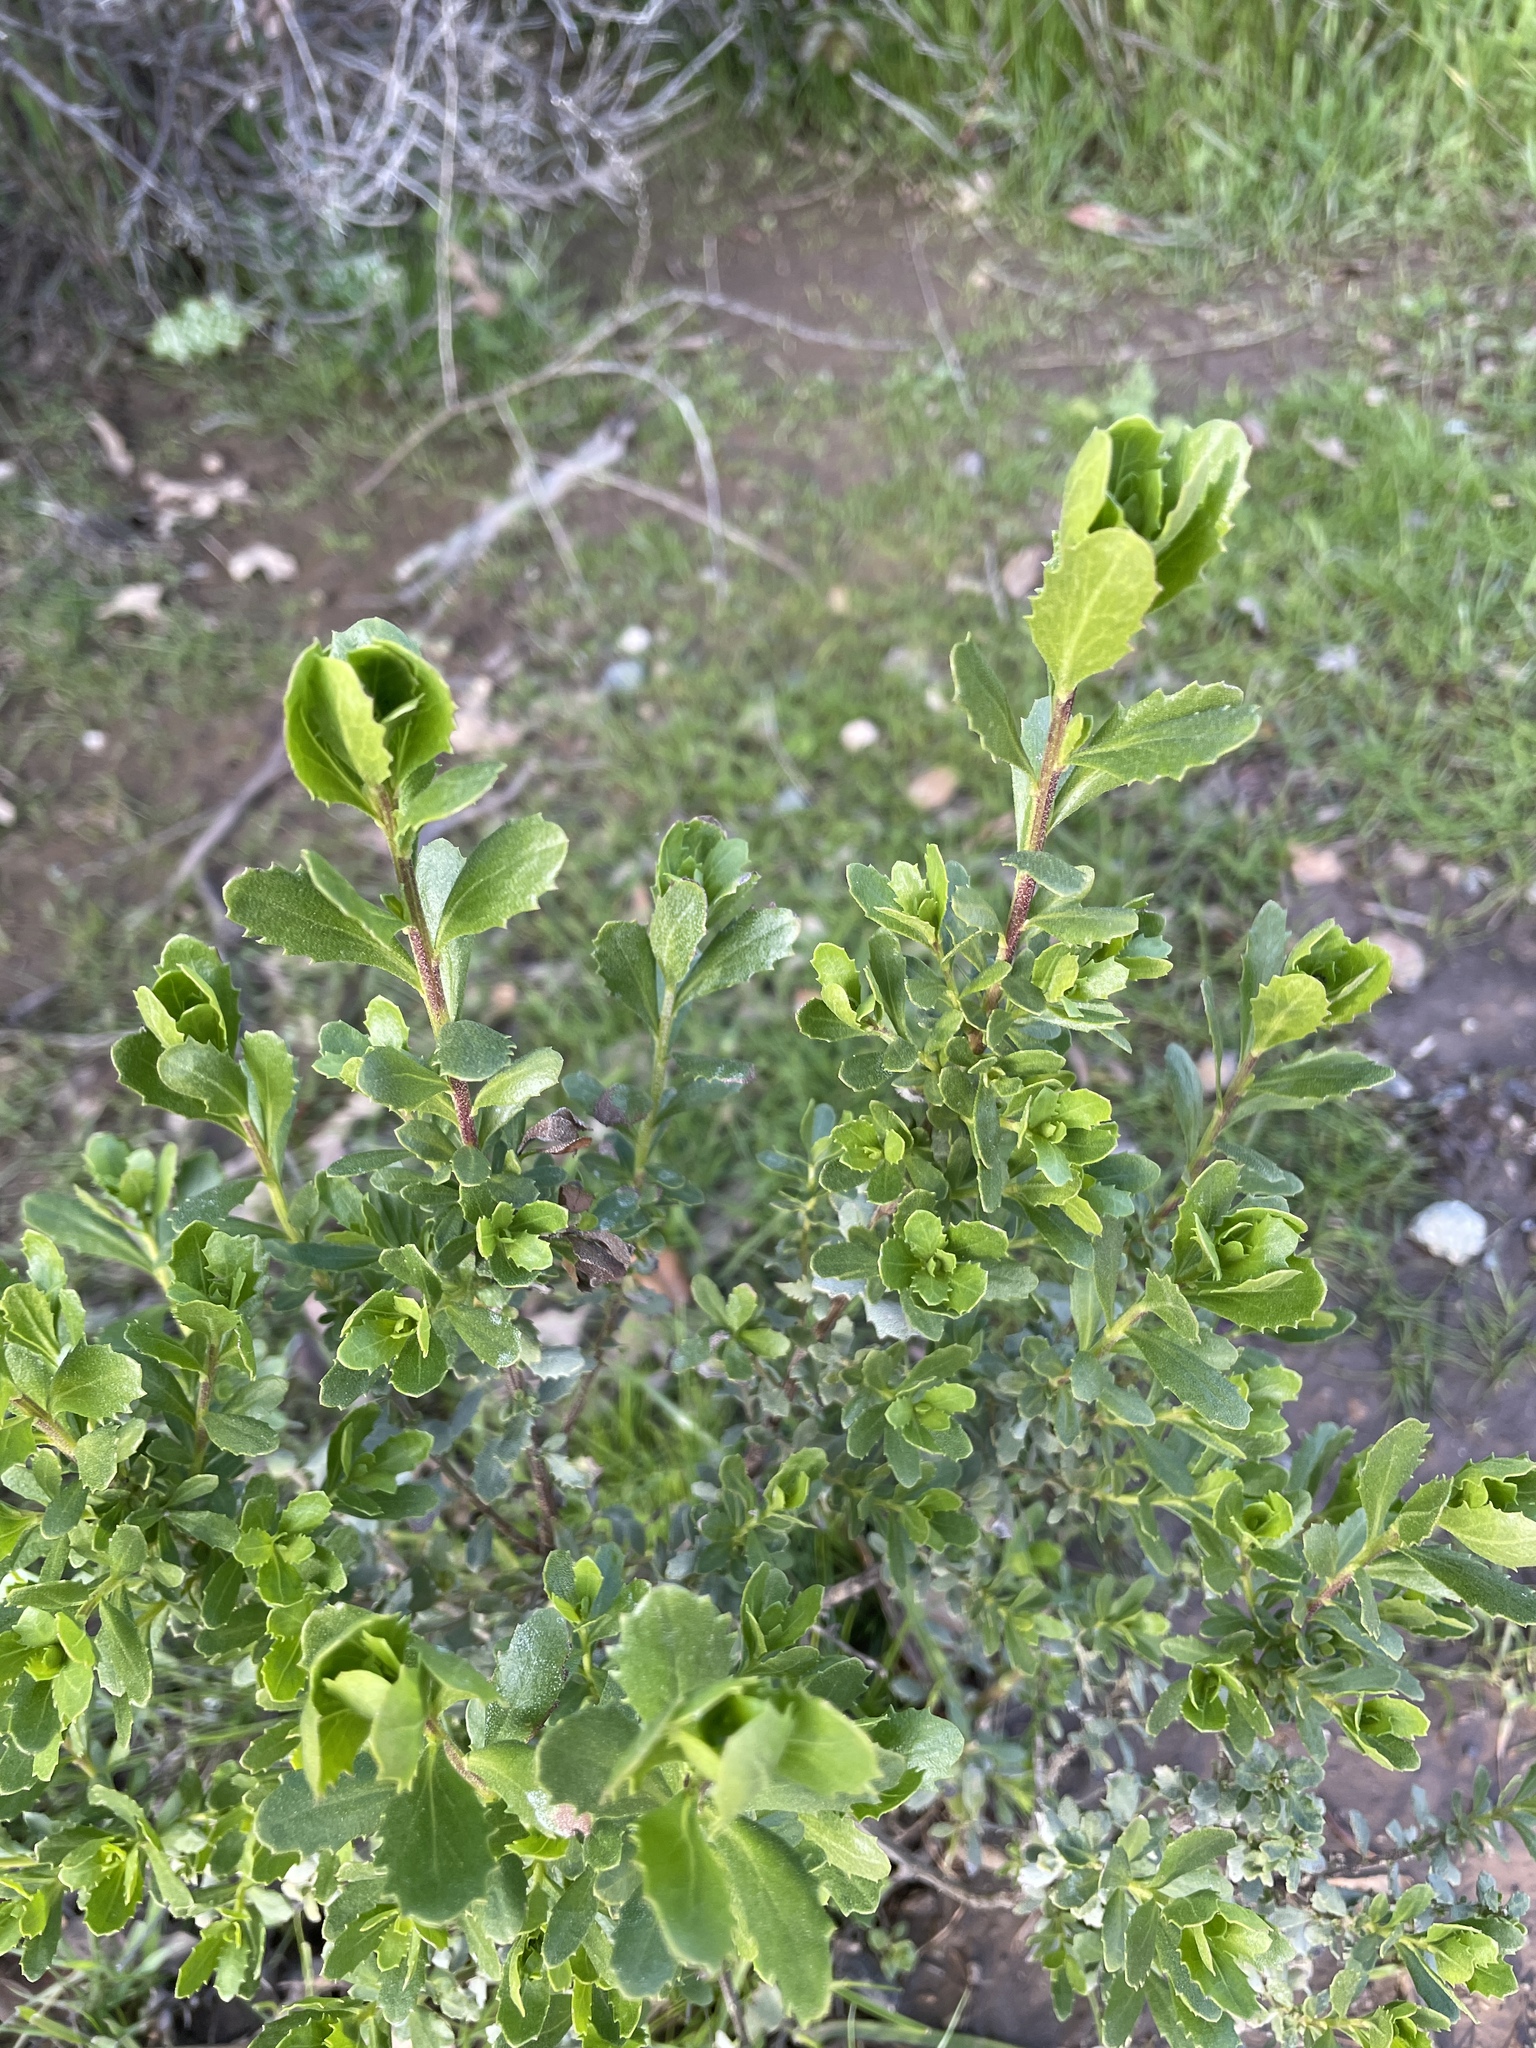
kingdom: Plantae
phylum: Tracheophyta
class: Magnoliopsida
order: Asterales
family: Asteraceae
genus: Baccharis
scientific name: Baccharis pilularis
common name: Coyotebrush
